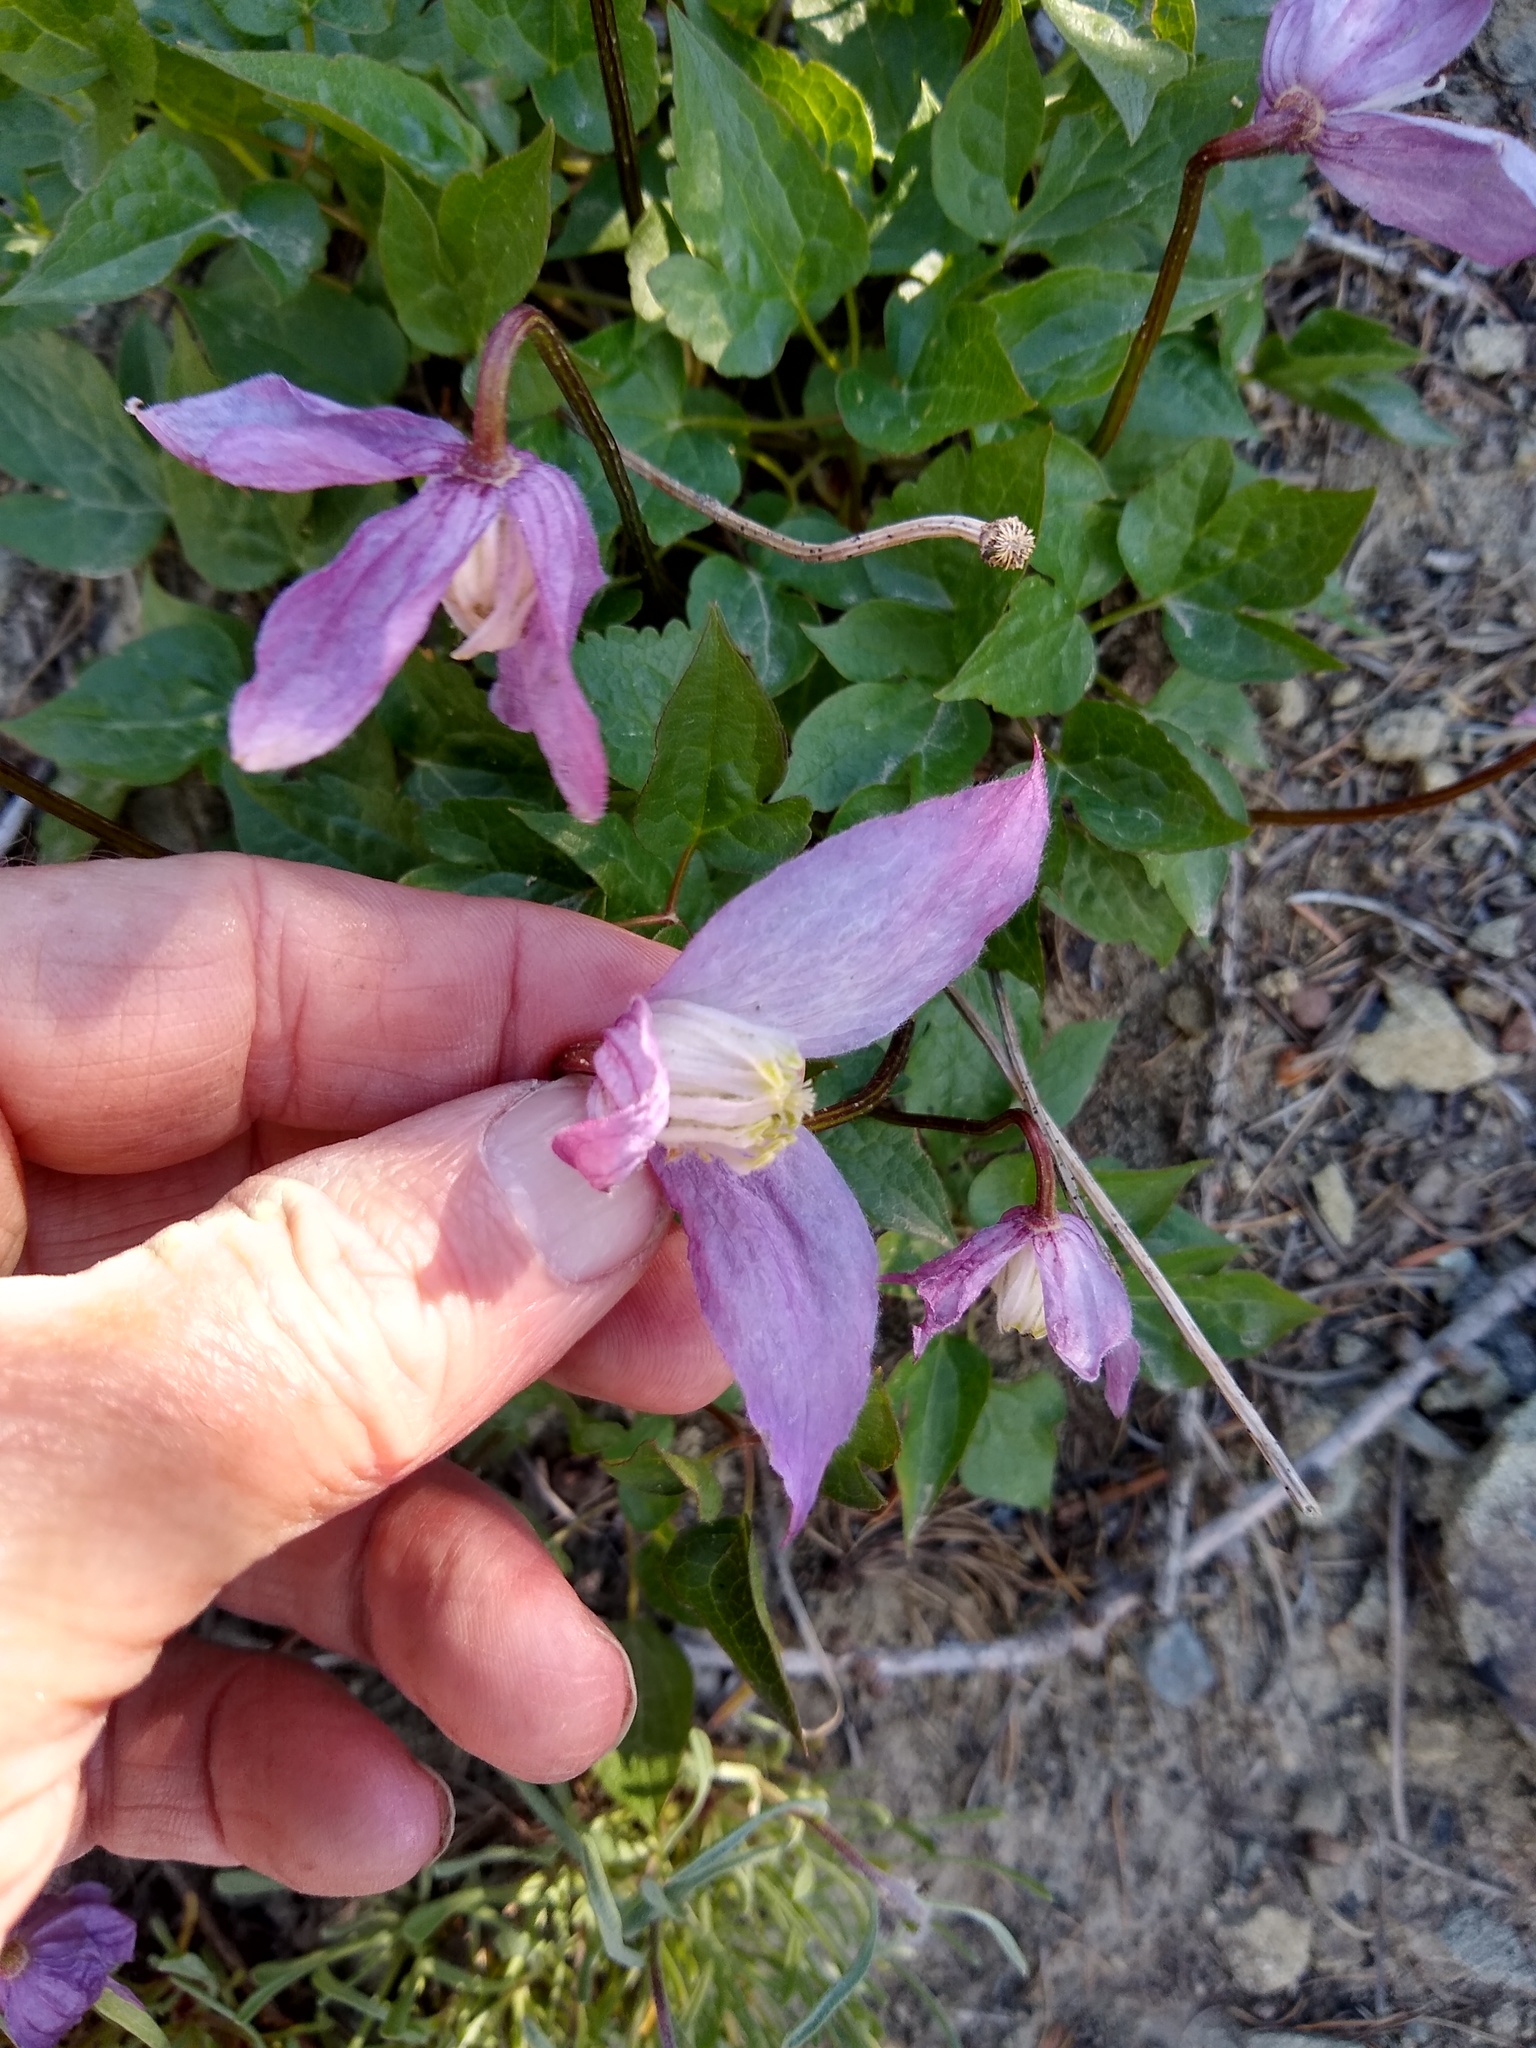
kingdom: Plantae
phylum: Tracheophyta
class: Magnoliopsida
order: Ranunculales
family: Ranunculaceae
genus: Clematis
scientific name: Clematis occidentalis
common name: Purple clematis
